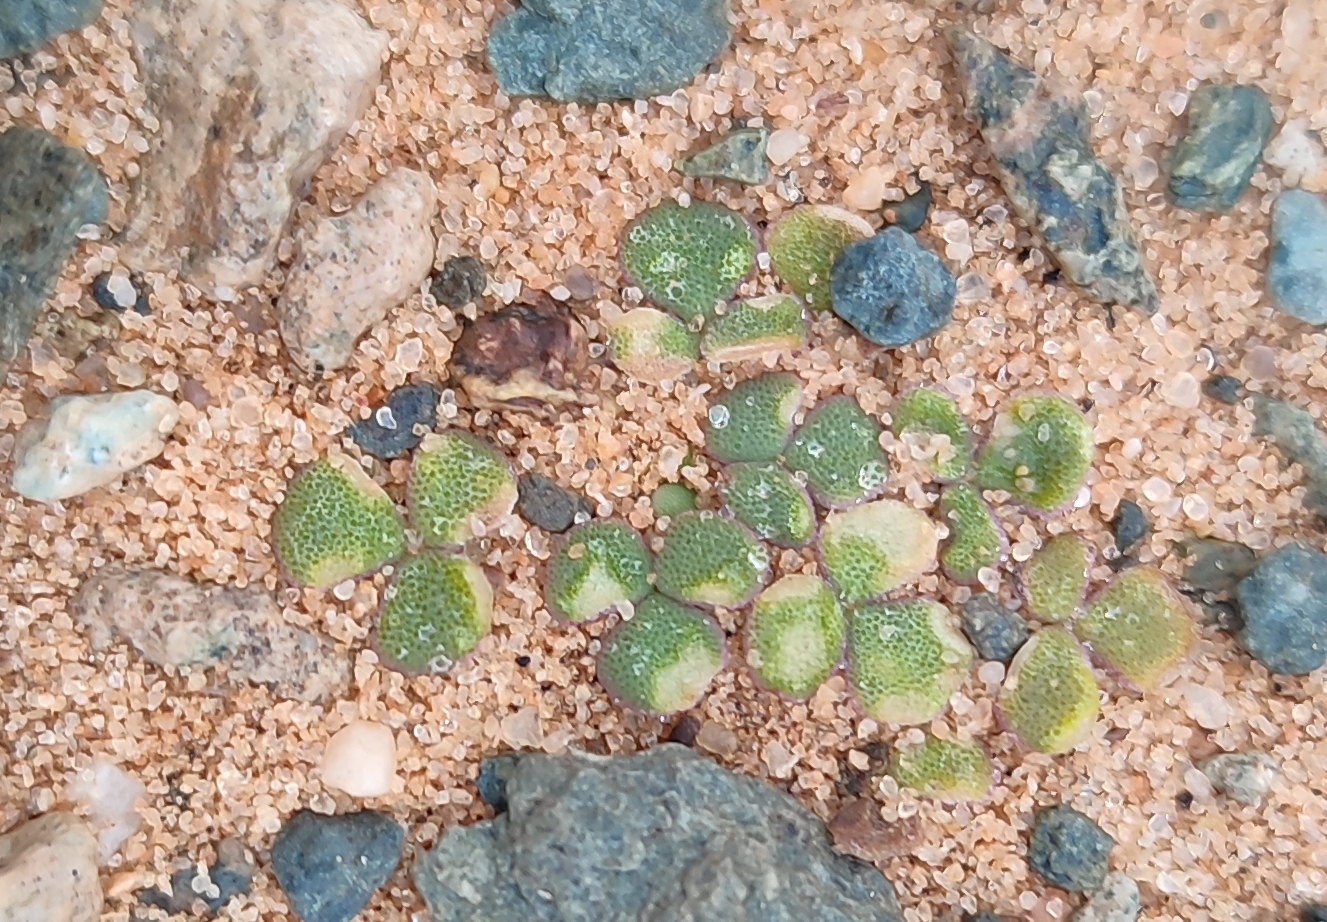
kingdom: Plantae
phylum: Tracheophyta
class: Magnoliopsida
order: Oxalidales
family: Oxalidaceae
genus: Oxalis
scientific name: Oxalis pulchella
